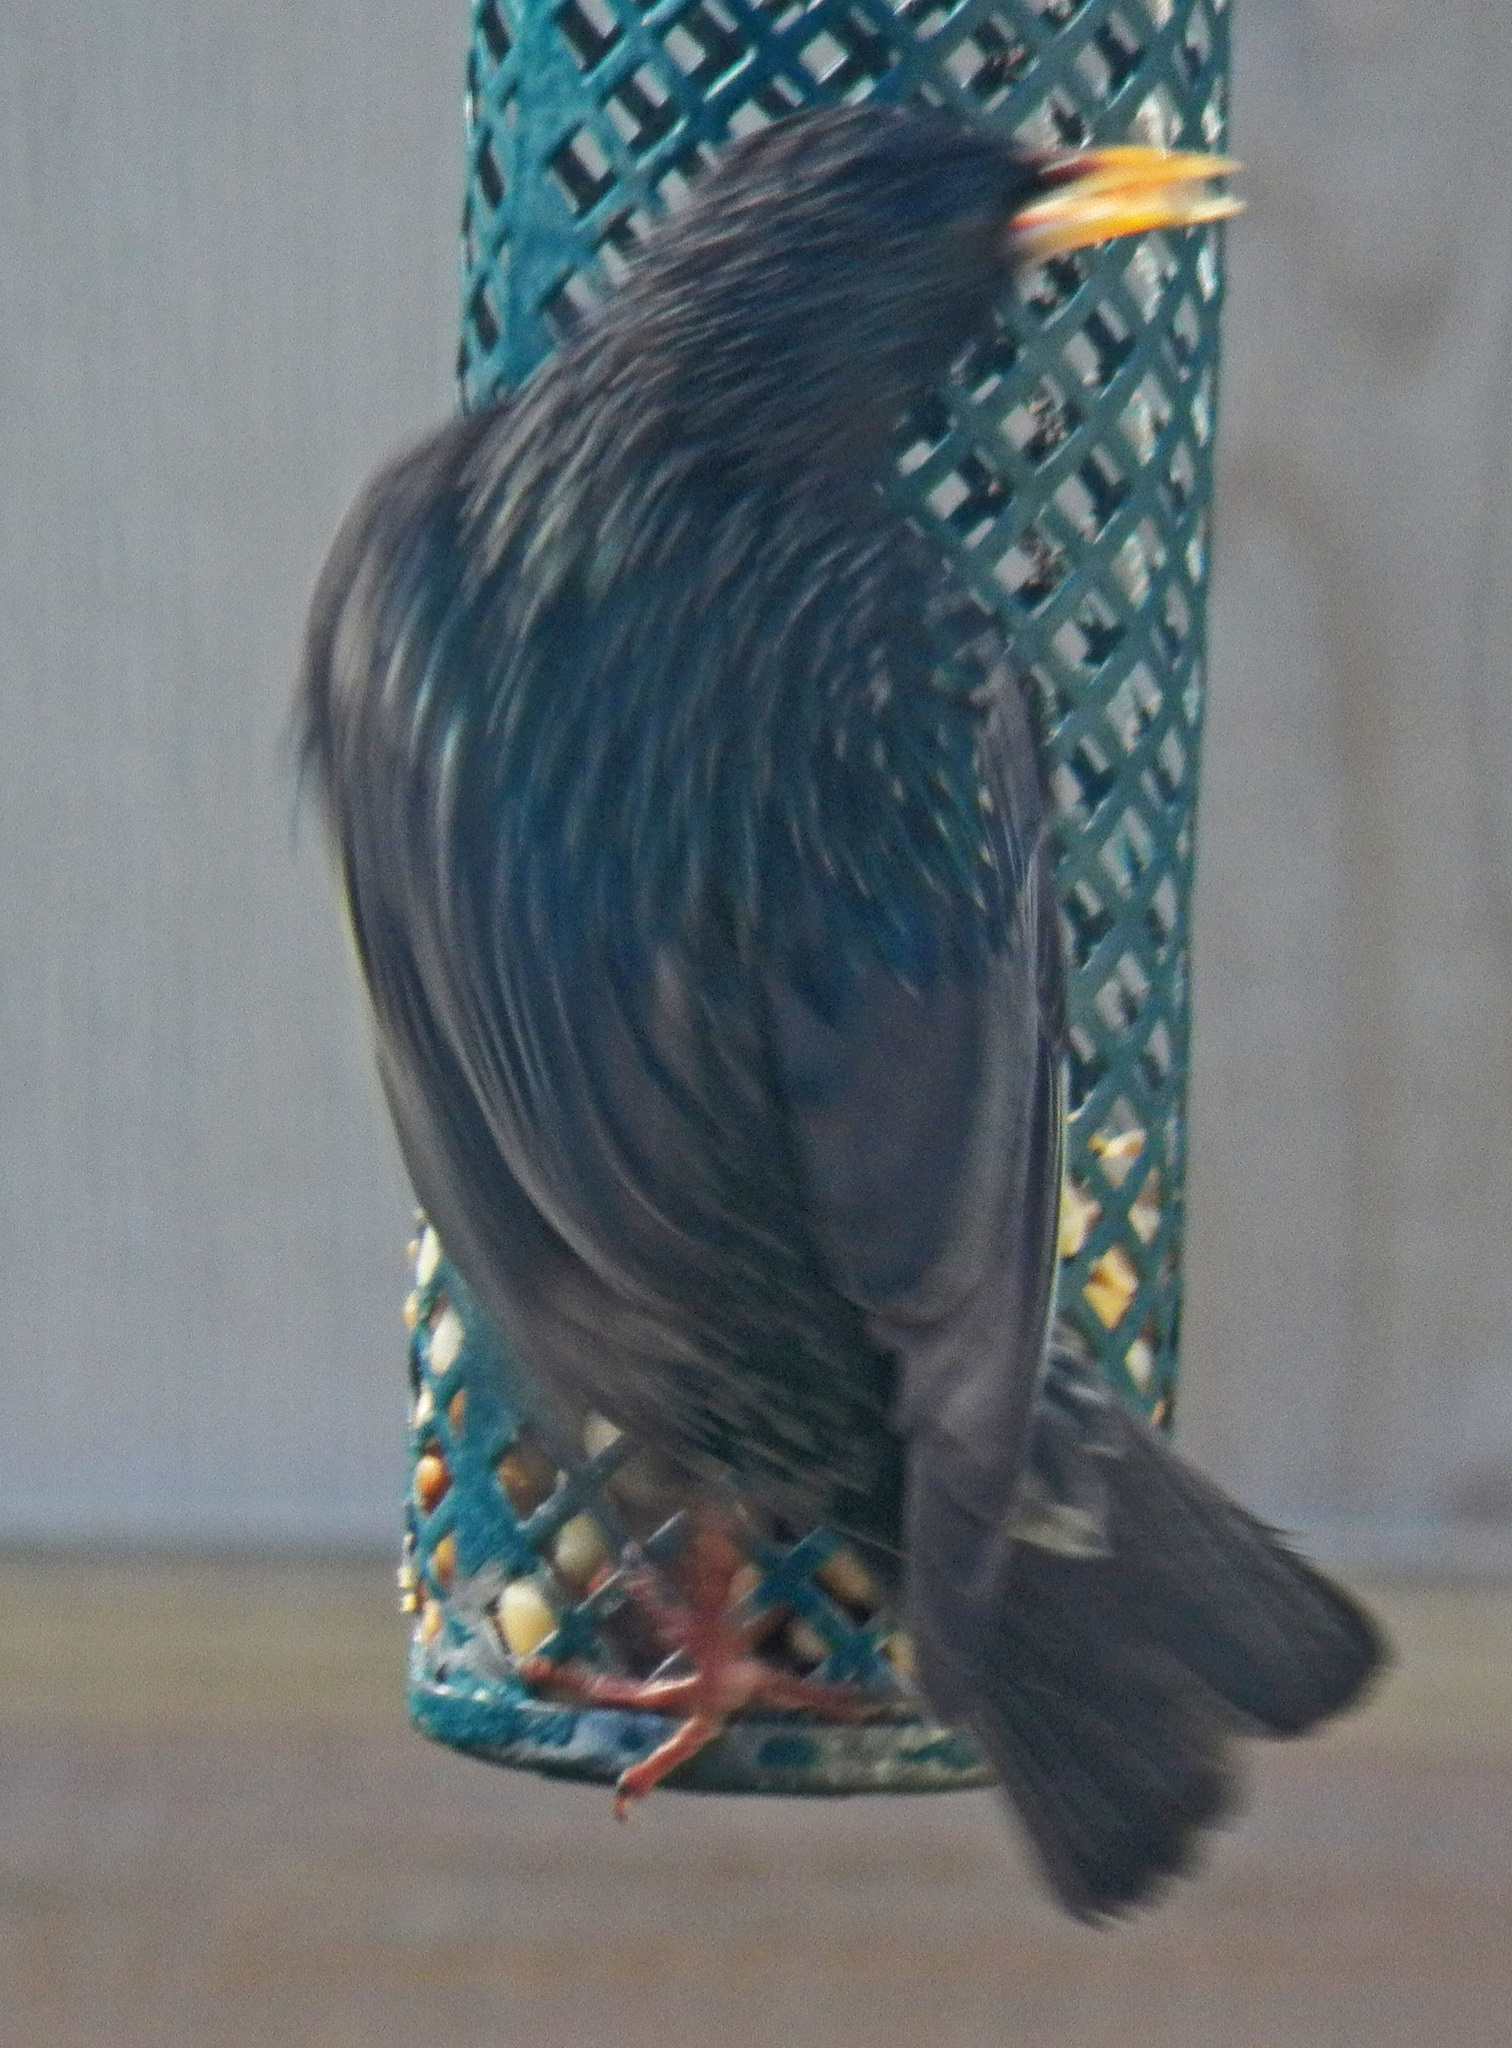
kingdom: Animalia
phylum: Chordata
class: Aves
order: Passeriformes
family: Sturnidae
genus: Sturnus
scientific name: Sturnus vulgaris
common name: Common starling
